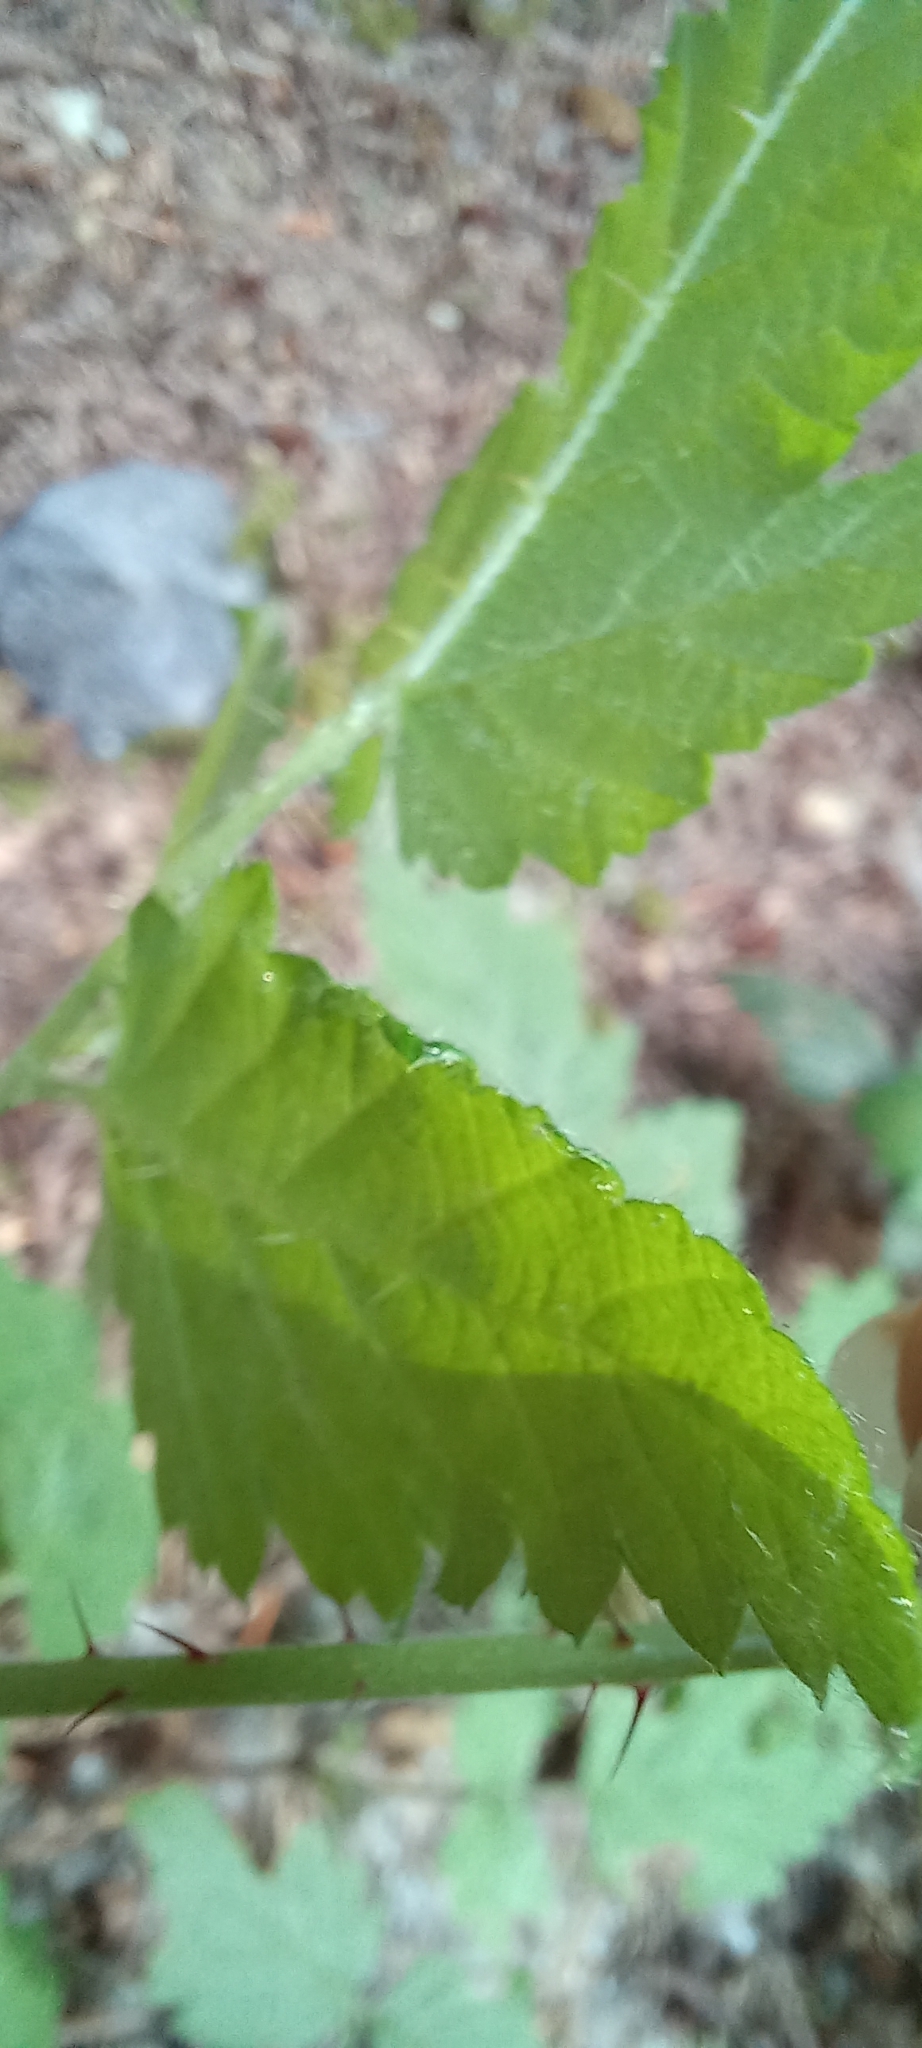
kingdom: Plantae
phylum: Tracheophyta
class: Magnoliopsida
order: Rosales
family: Rosaceae
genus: Rubus
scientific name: Rubus ursinus
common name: Pacific blackberry
